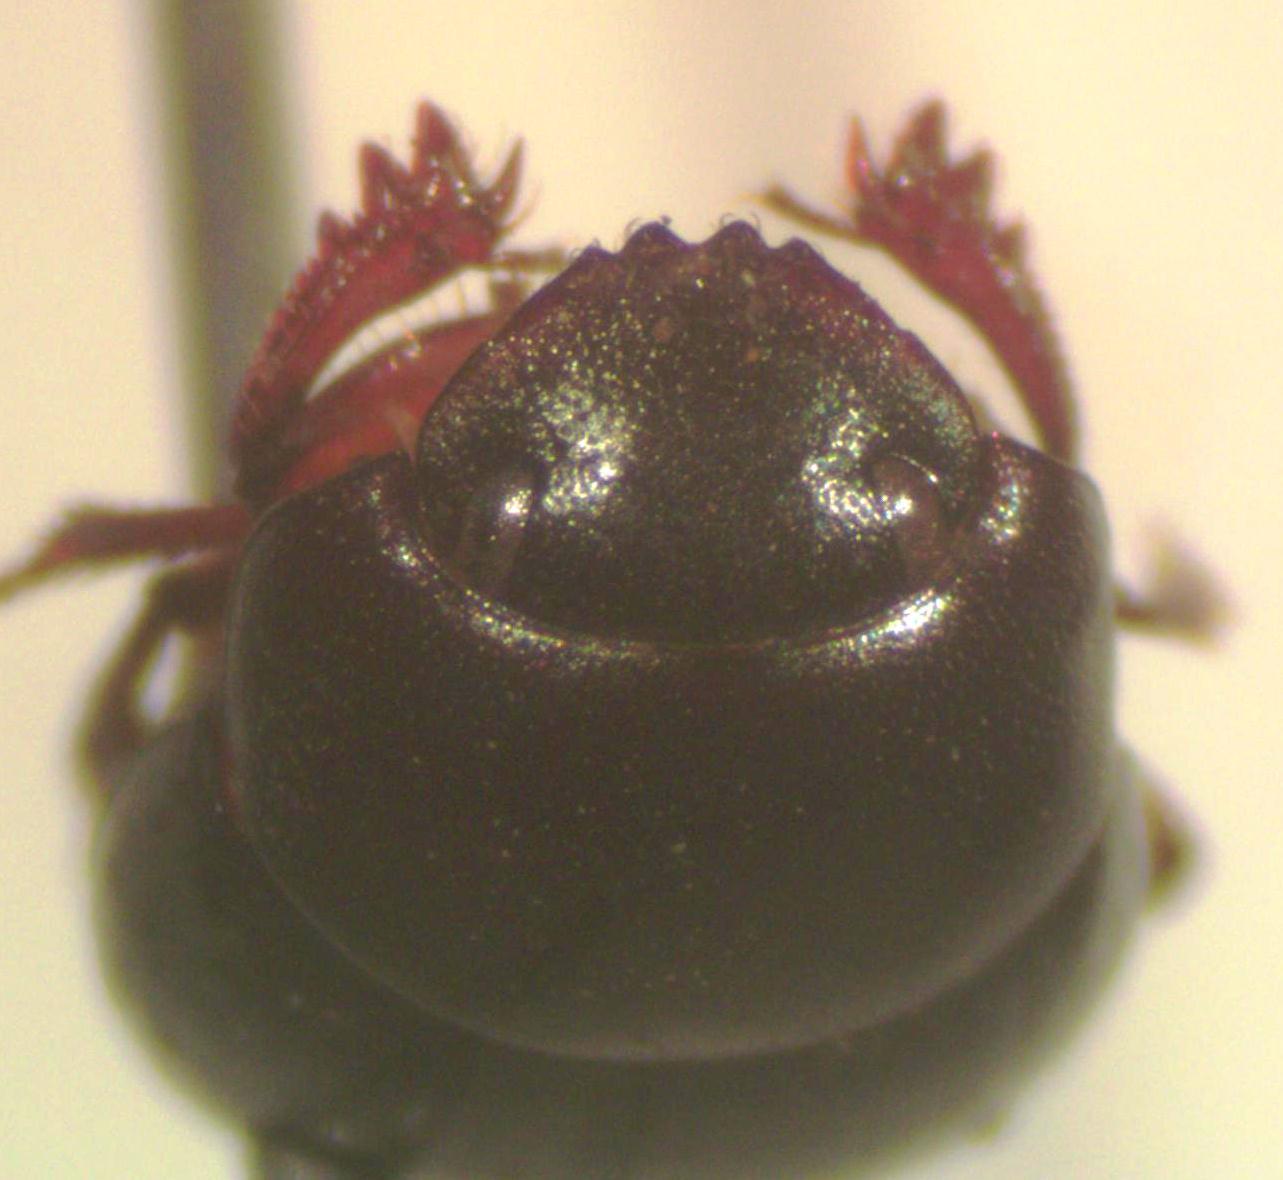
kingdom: Animalia
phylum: Arthropoda
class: Insecta
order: Coleoptera
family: Scarabaeidae
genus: Pseudocanthon
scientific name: Pseudocanthon perplexus
